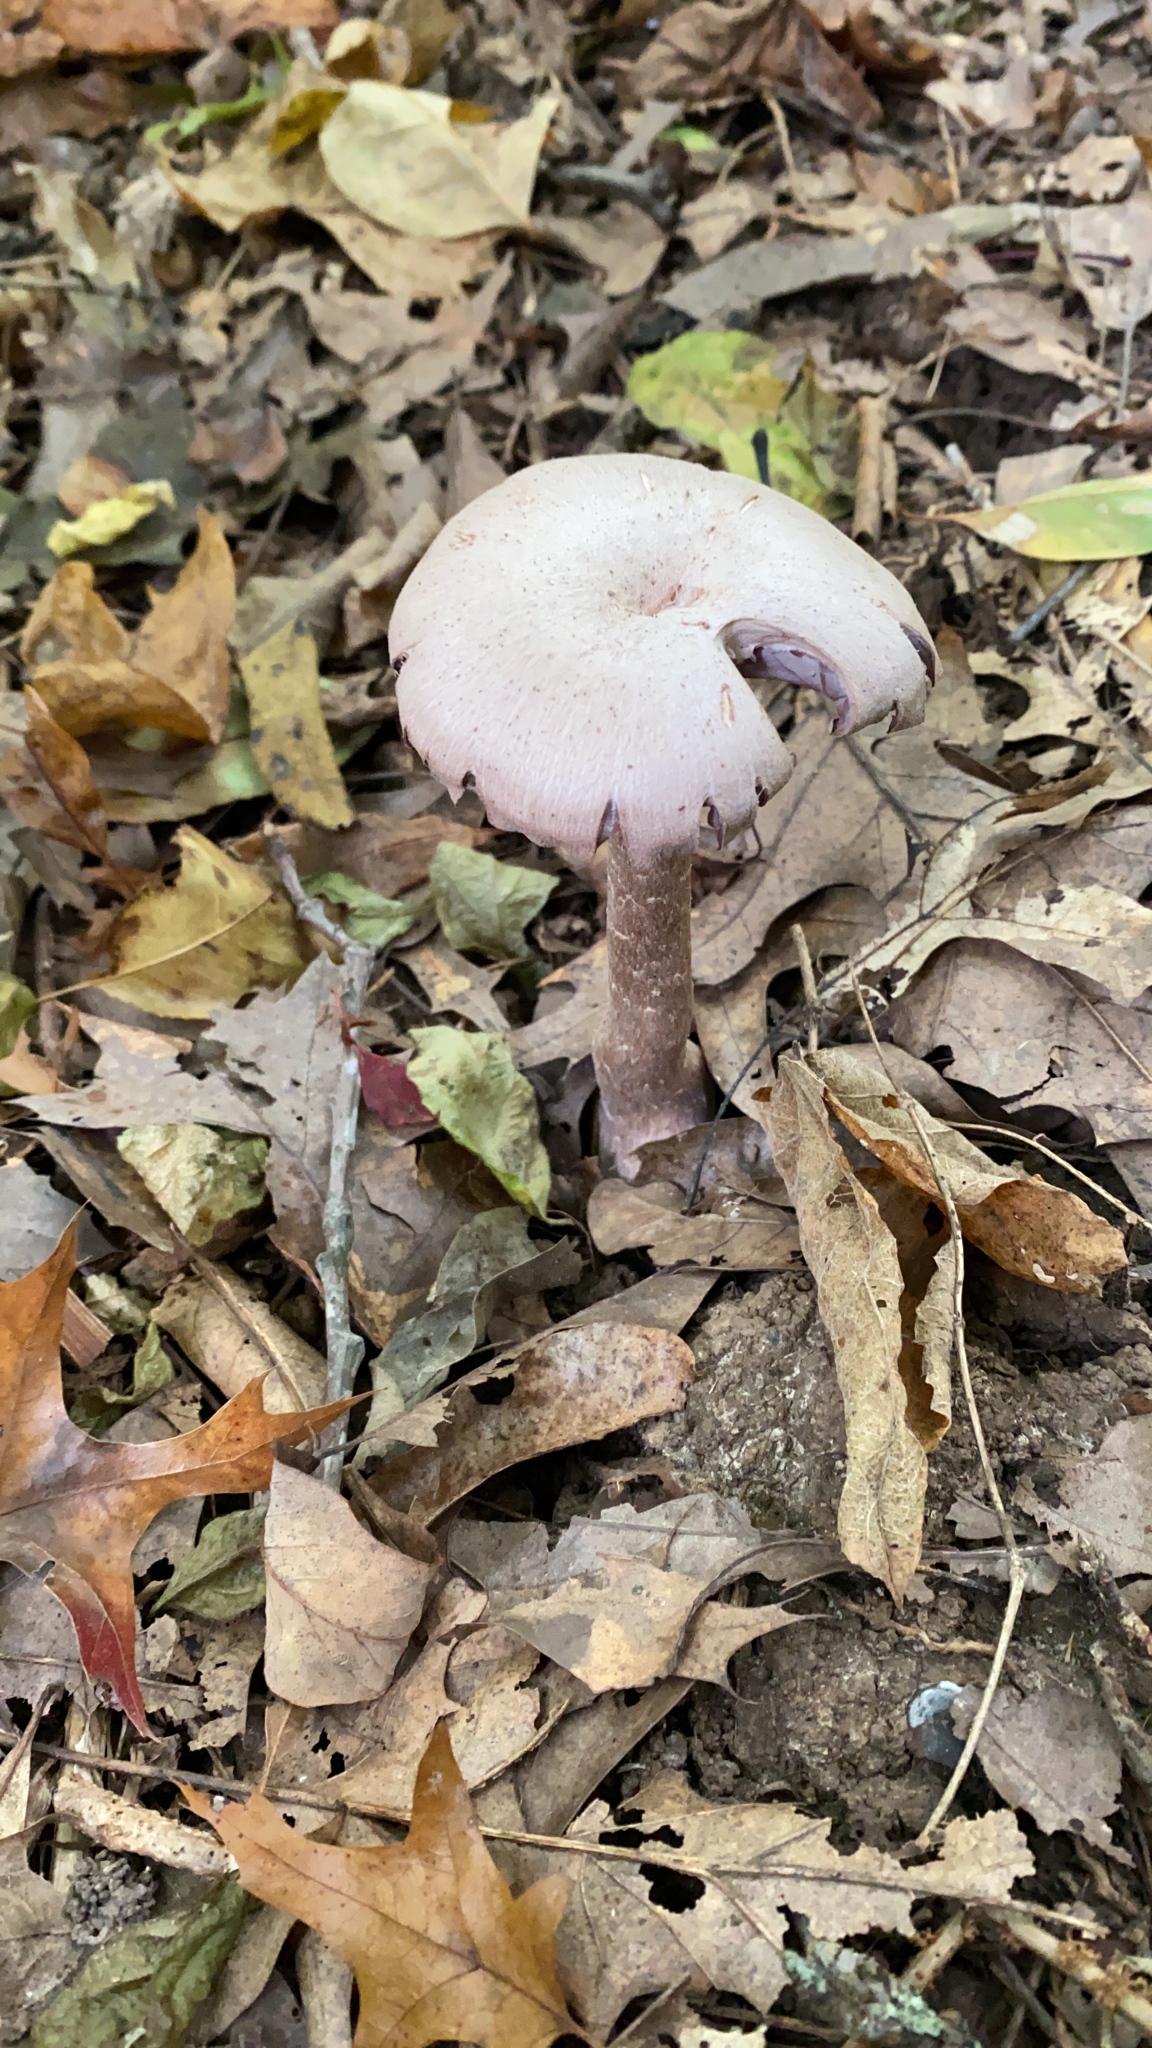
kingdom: Fungi
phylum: Basidiomycota
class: Agaricomycetes
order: Agaricales
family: Hydnangiaceae
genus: Laccaria
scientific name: Laccaria ochropurpurea
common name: Purple laccaria
